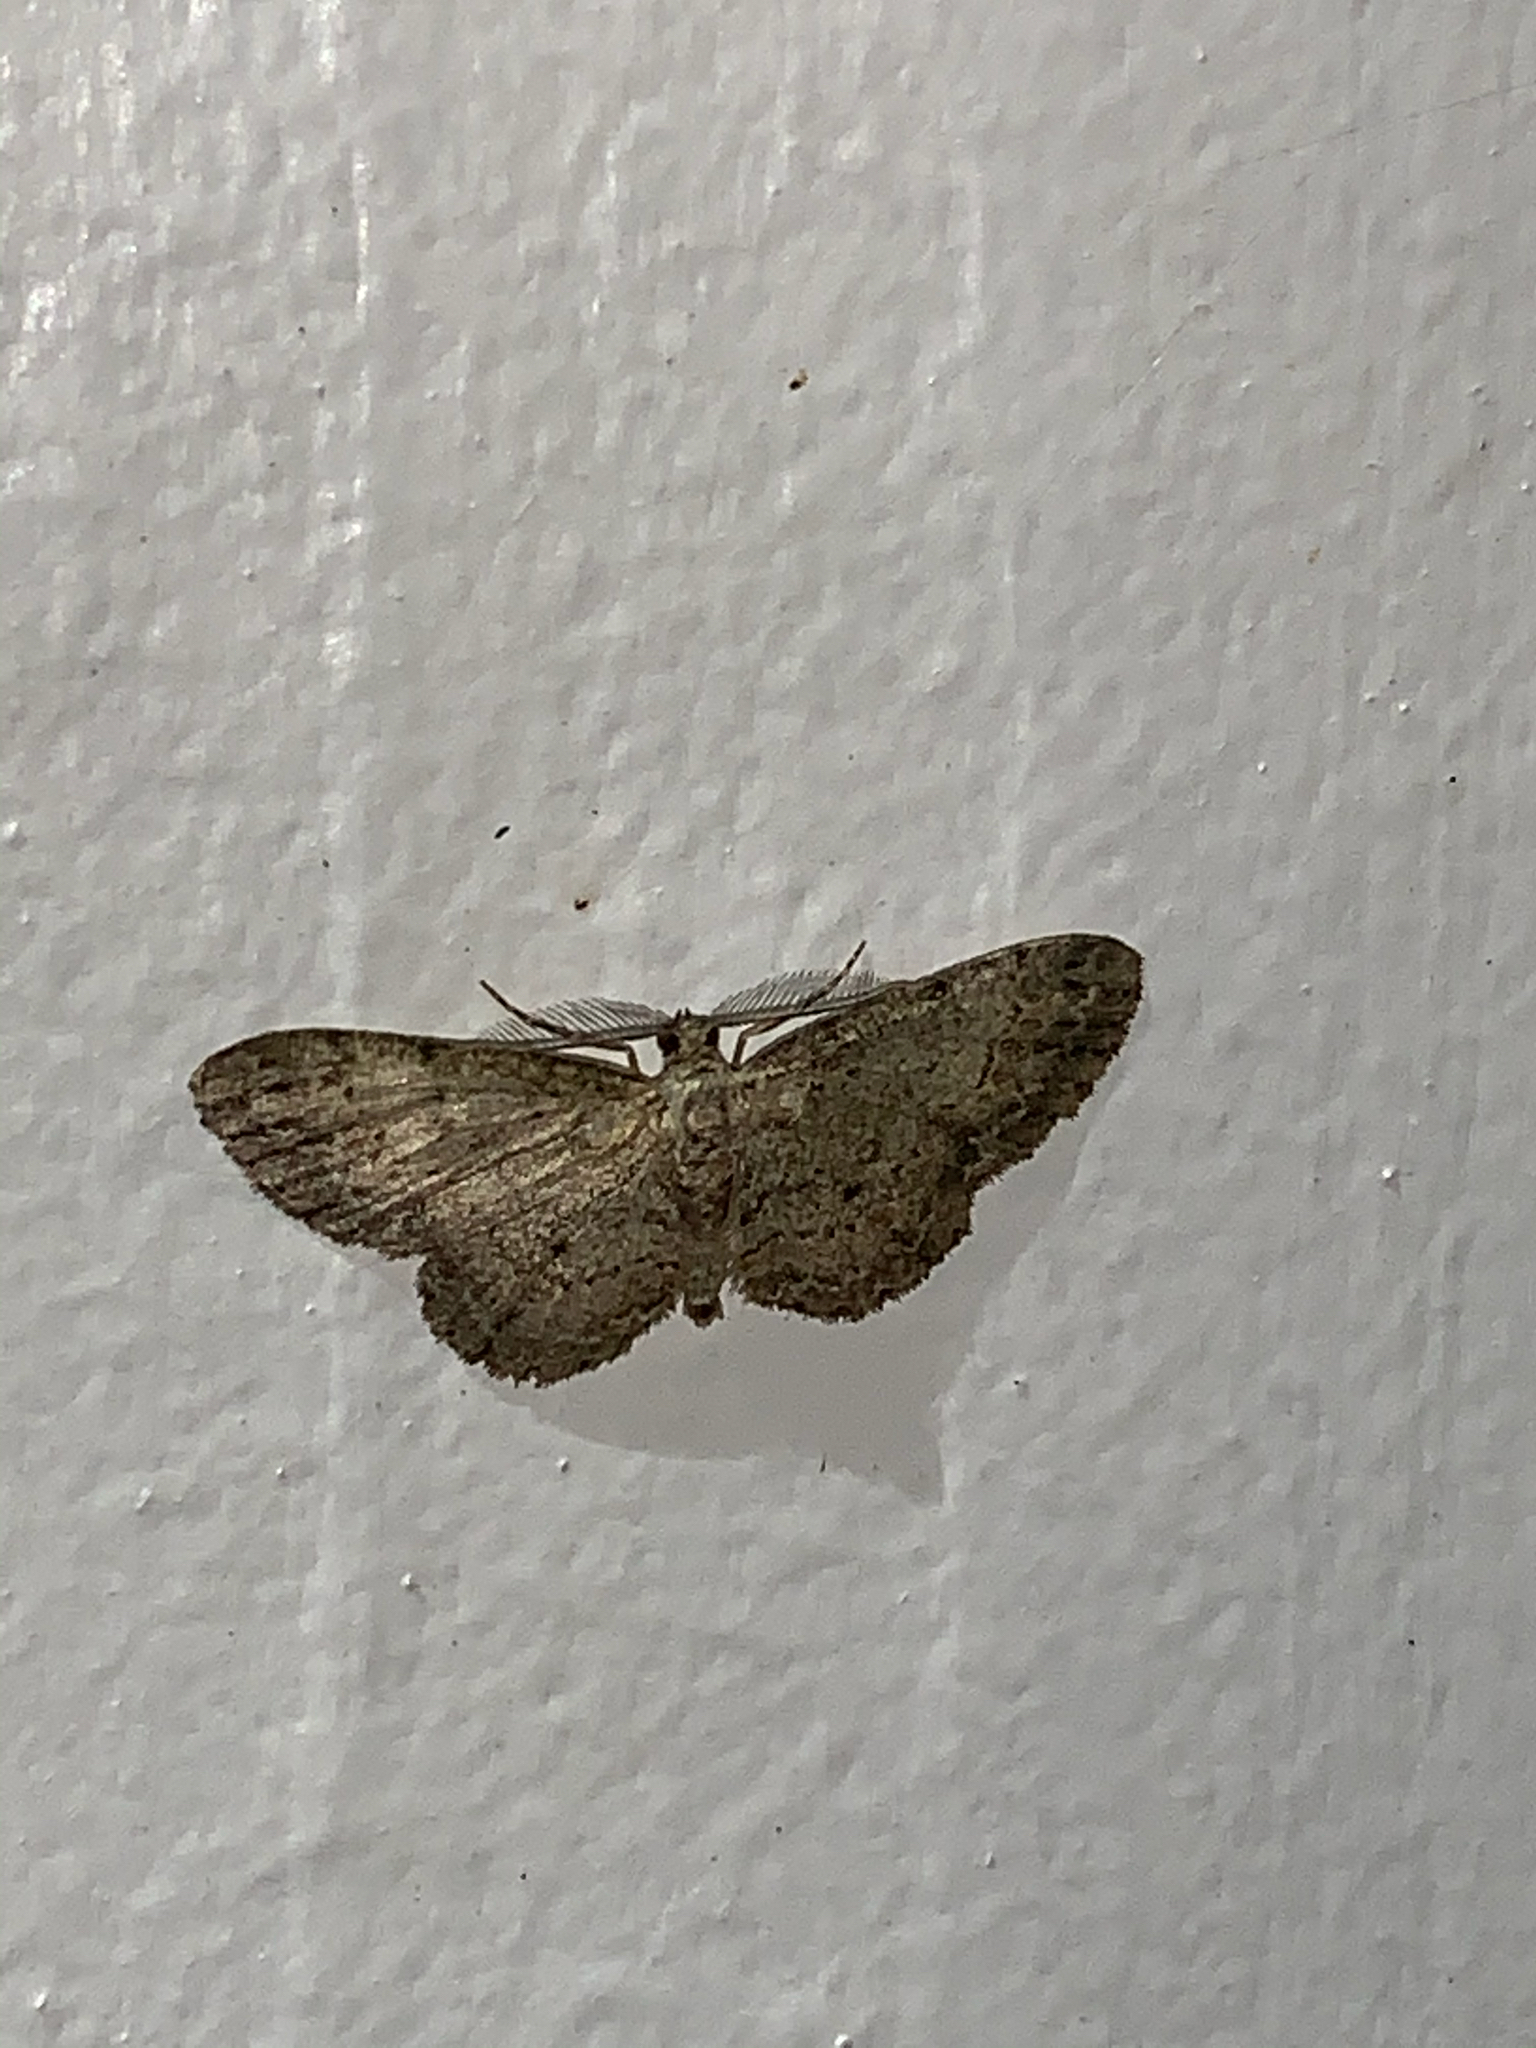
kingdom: Animalia
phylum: Arthropoda
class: Insecta
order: Lepidoptera
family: Geometridae
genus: Glenoides
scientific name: Glenoides texanaria
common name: Texas gray
